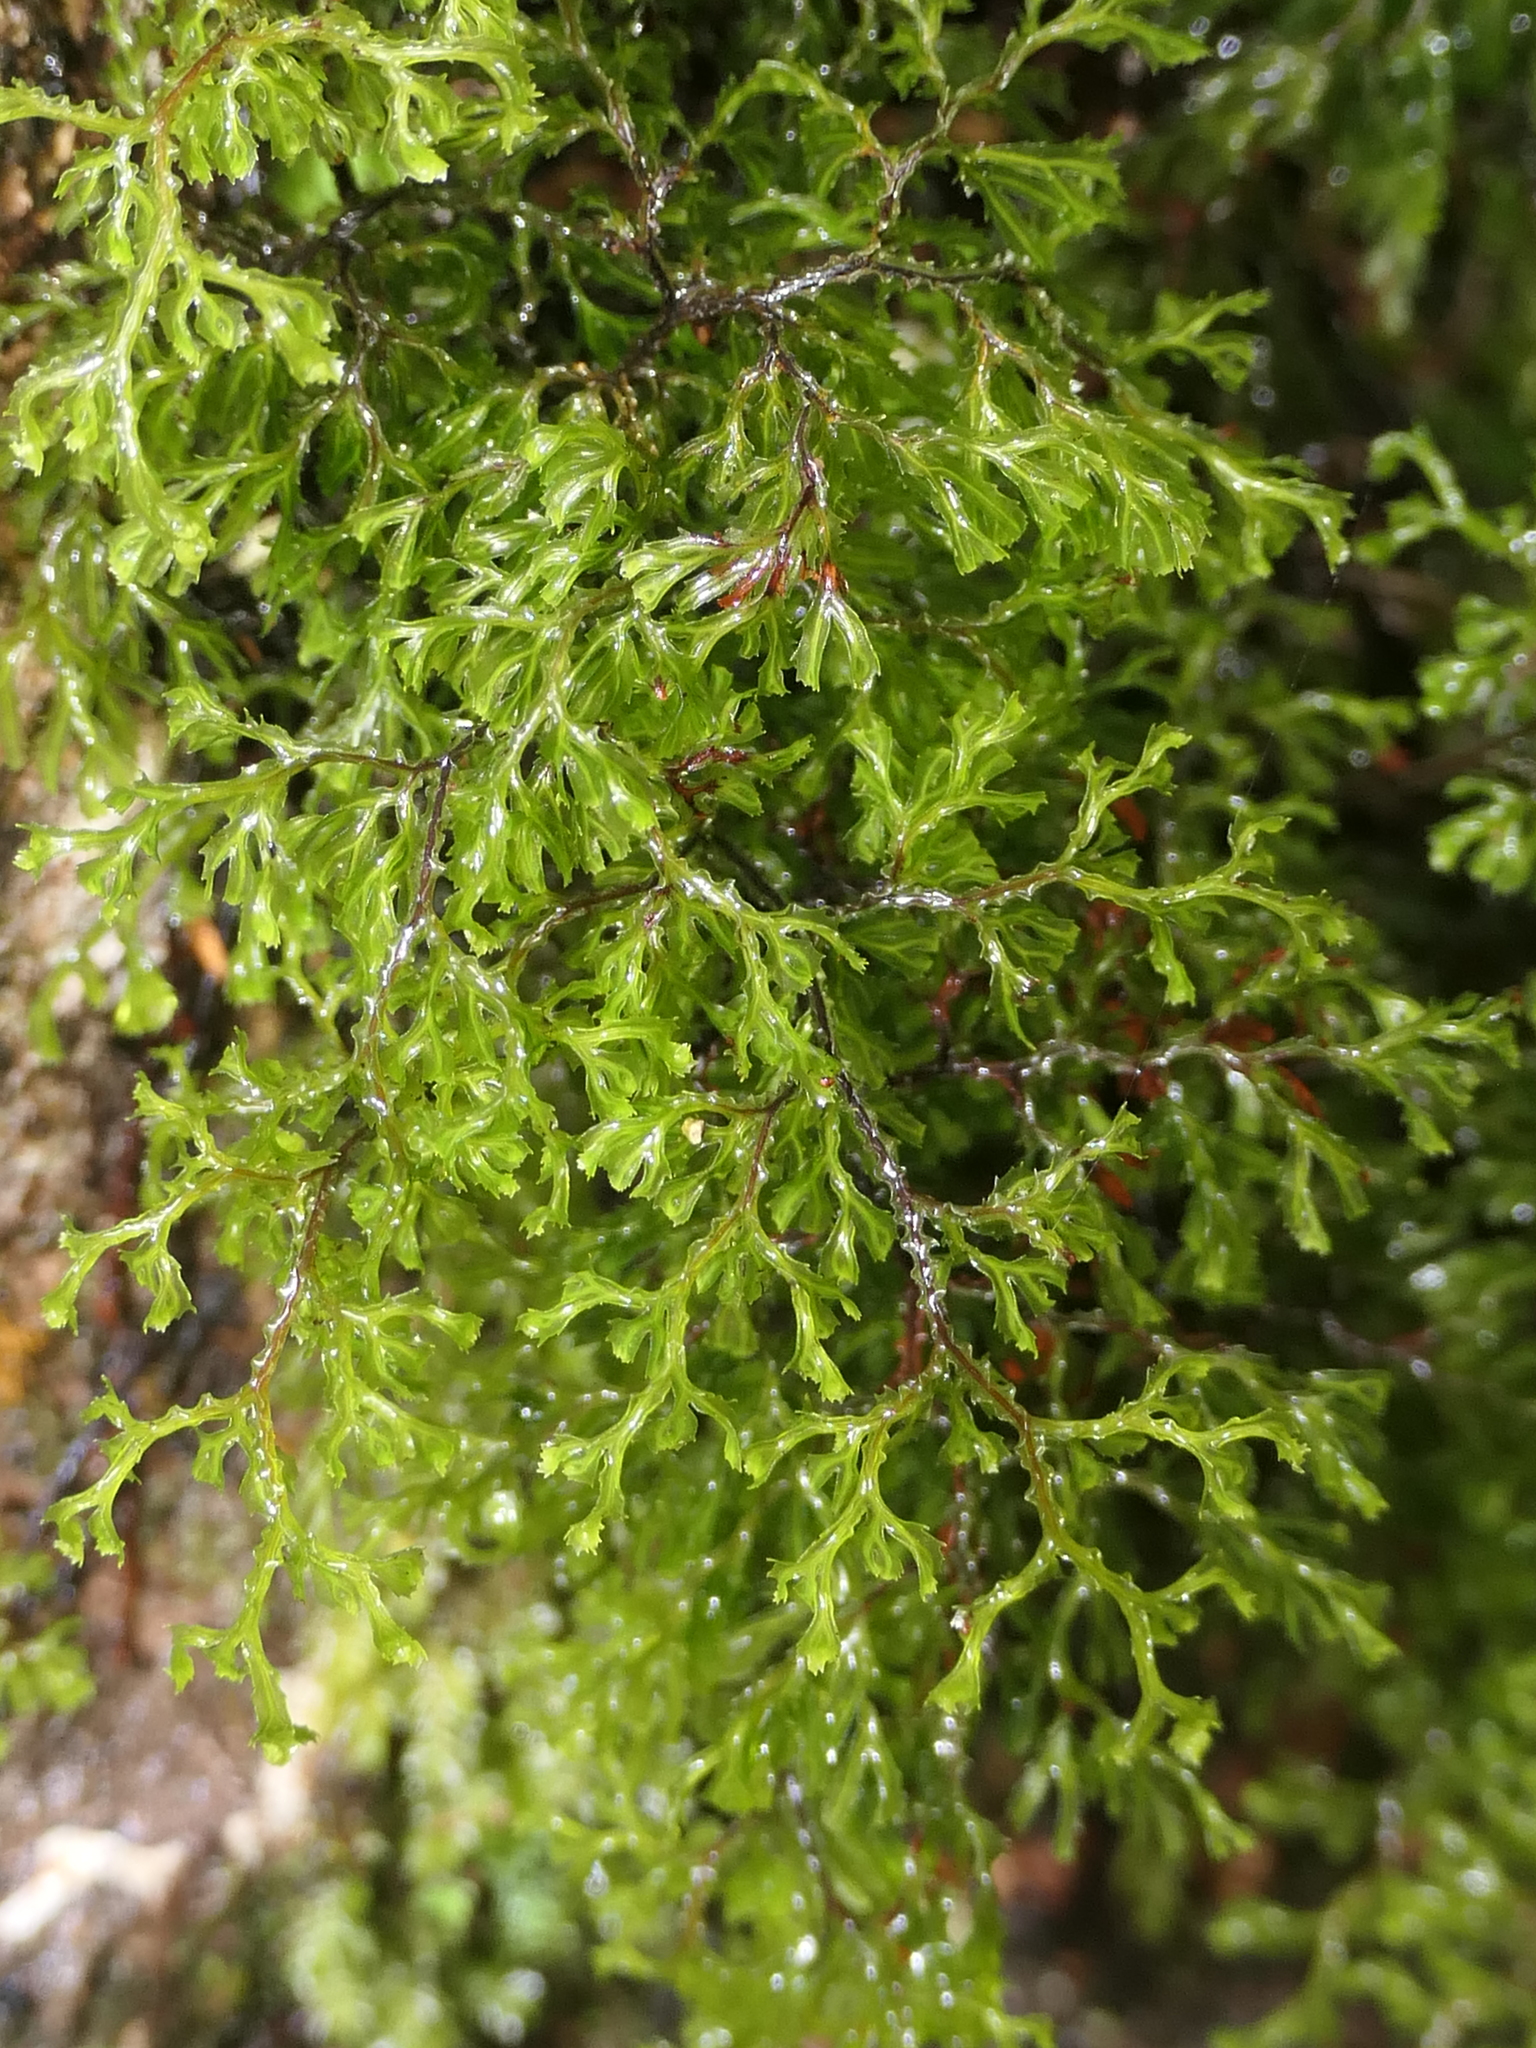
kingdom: Plantae
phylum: Tracheophyta
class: Polypodiopsida
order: Hymenophyllales
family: Hymenophyllaceae
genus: Hymenophyllum
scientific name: Hymenophyllum multifidum
